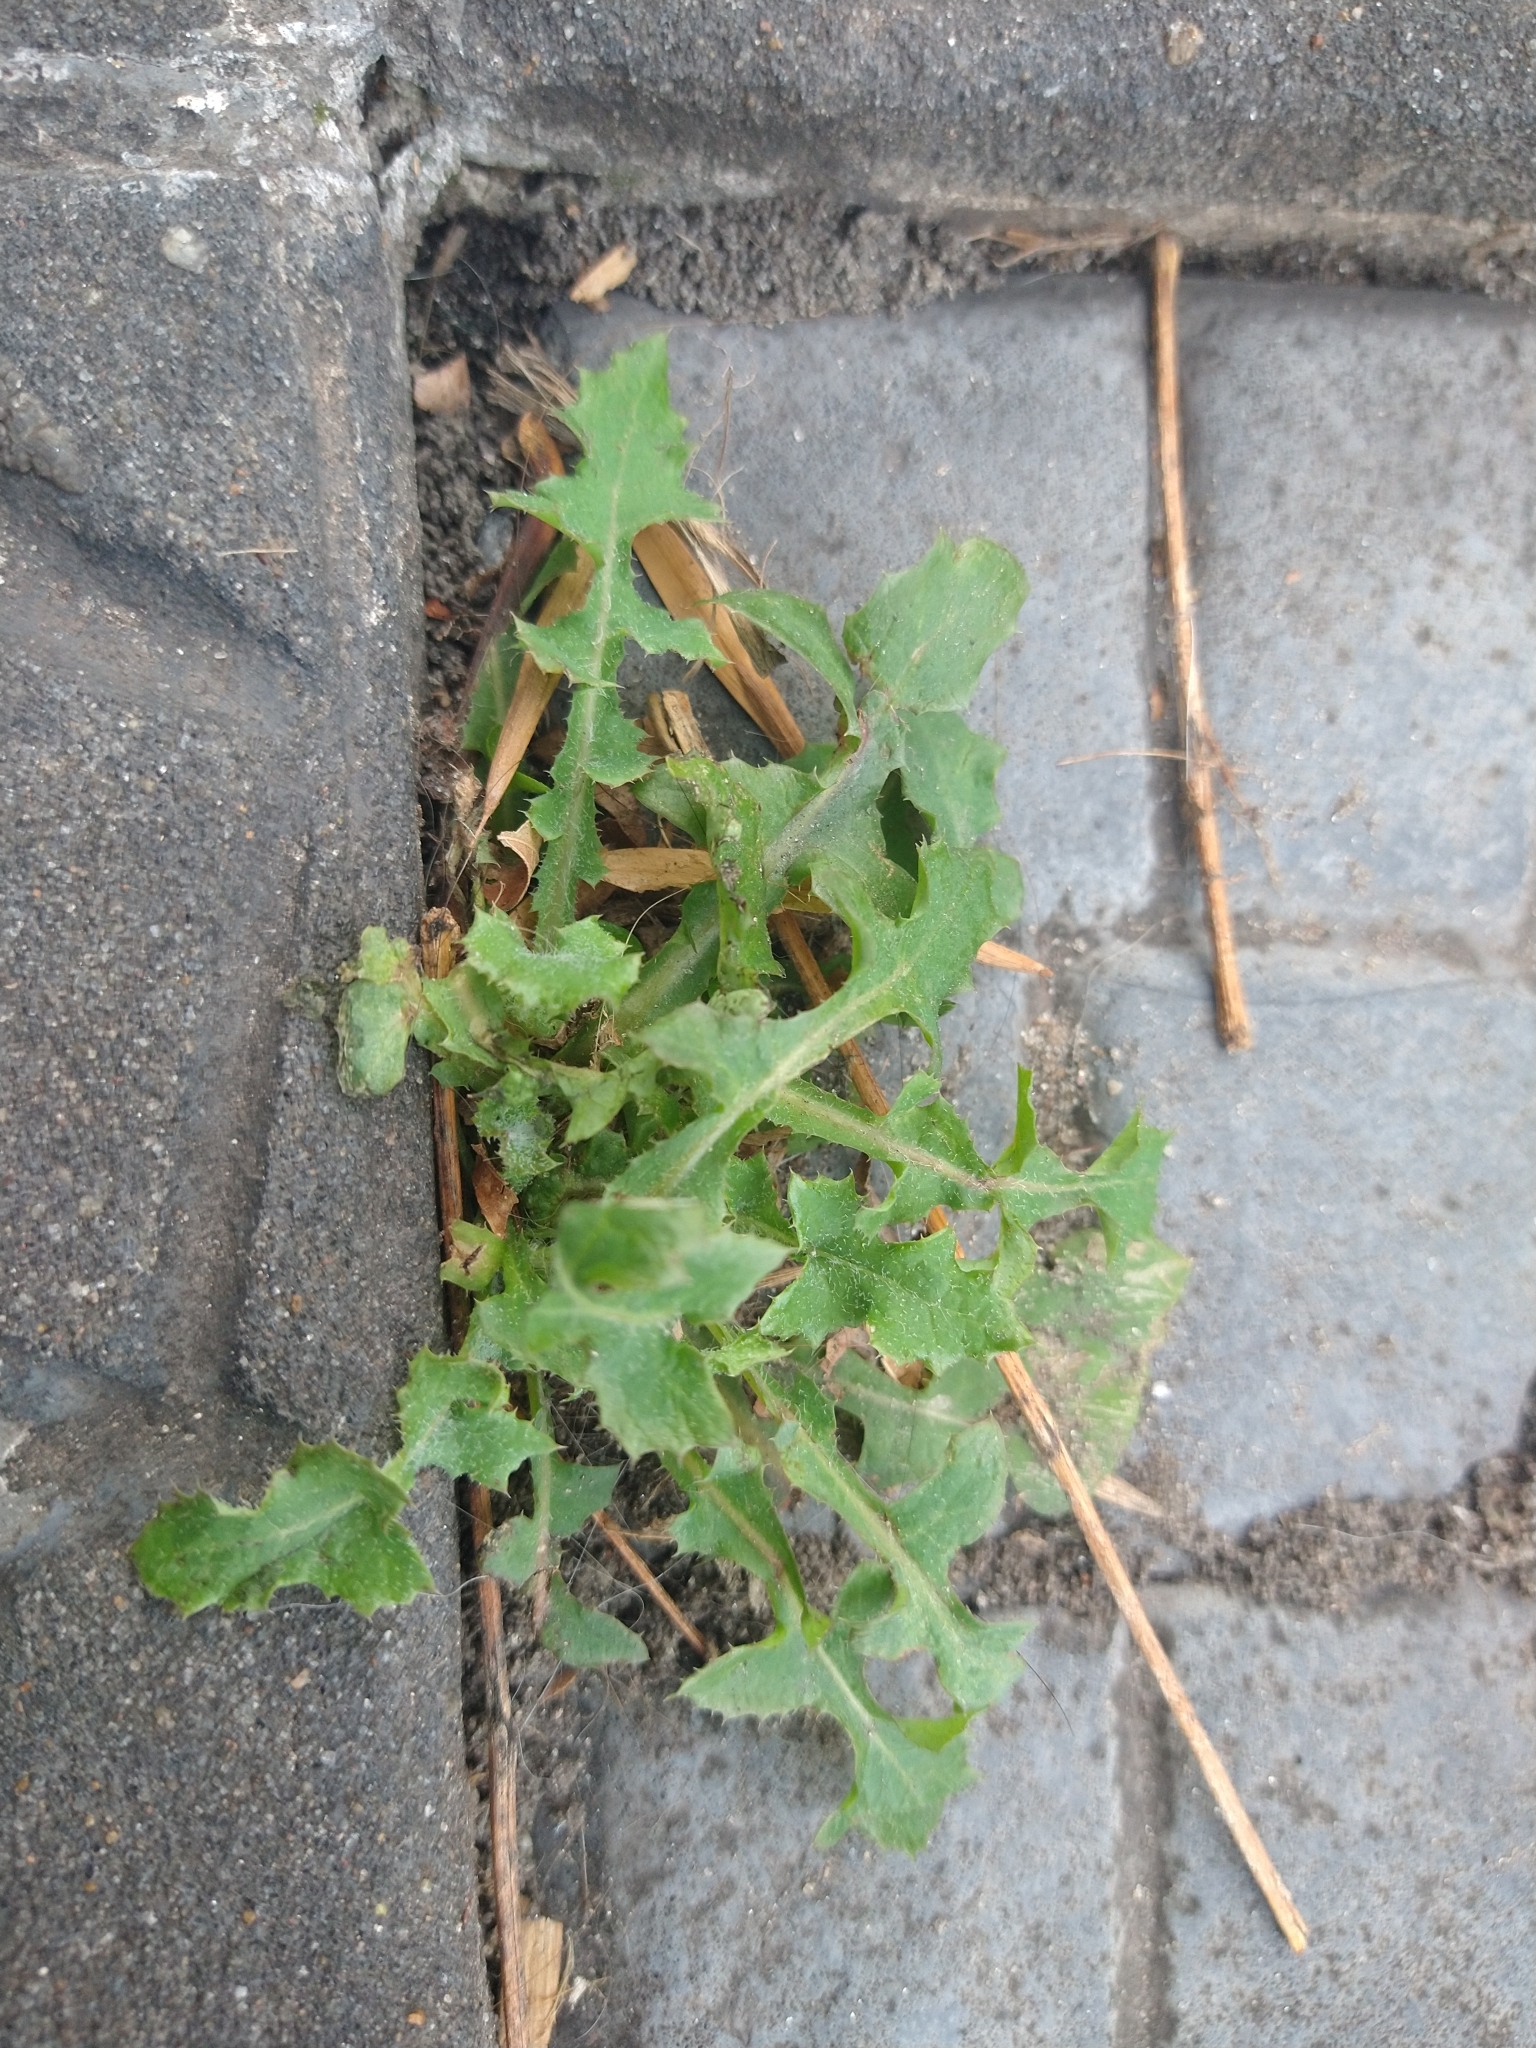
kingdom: Plantae
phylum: Tracheophyta
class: Magnoliopsida
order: Asterales
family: Asteraceae
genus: Sonchus
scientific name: Sonchus oleraceus
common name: Common sowthistle
